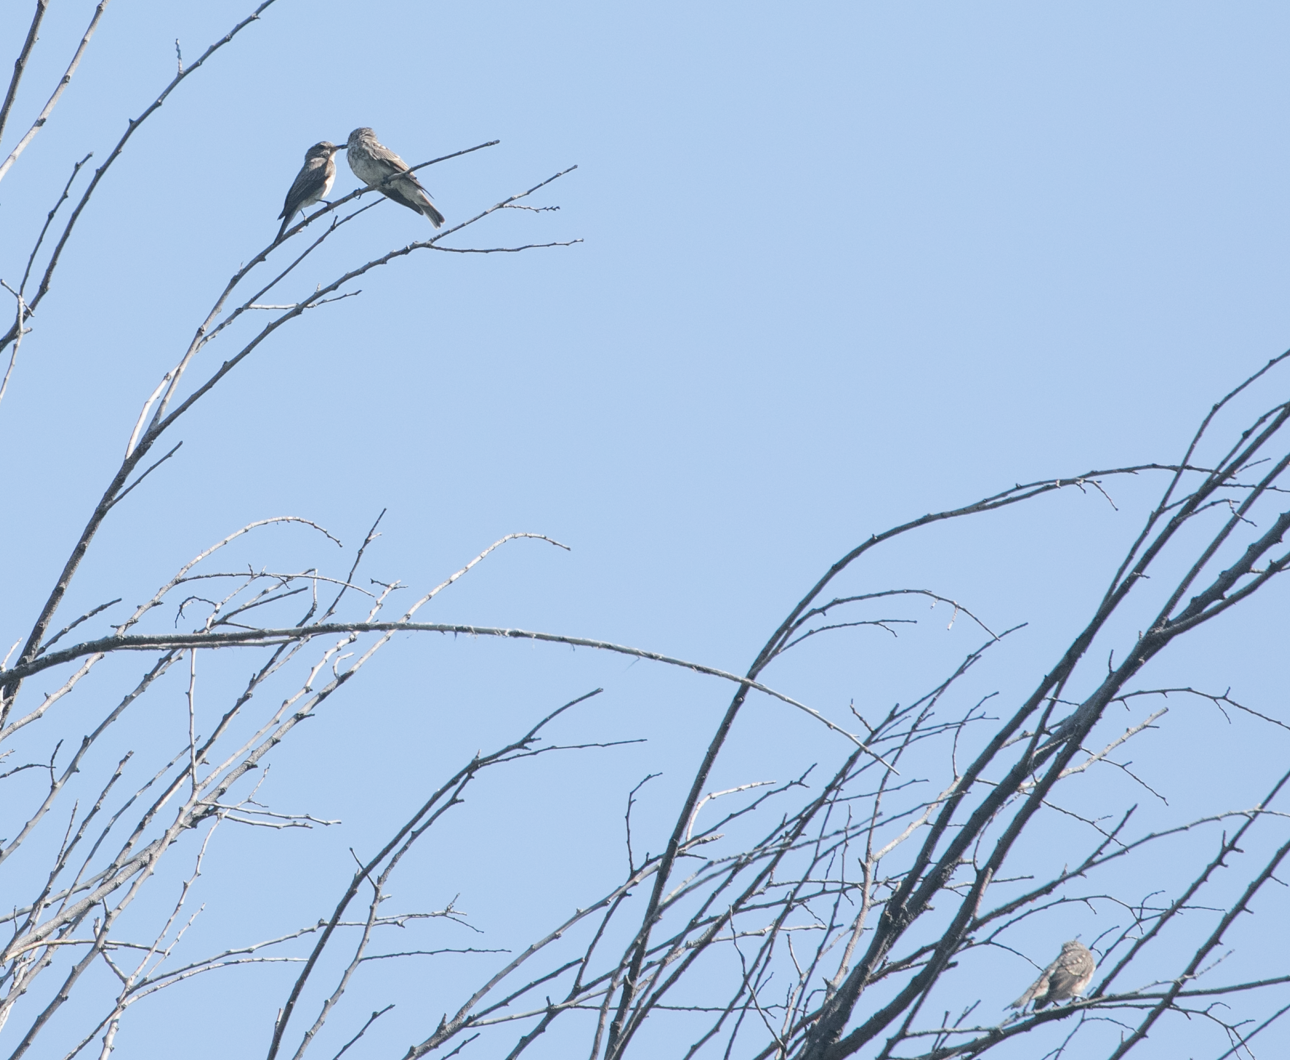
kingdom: Animalia
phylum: Chordata
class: Aves
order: Passeriformes
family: Muscicapidae
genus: Muscicapa
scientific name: Muscicapa striata
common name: Spotted flycatcher
